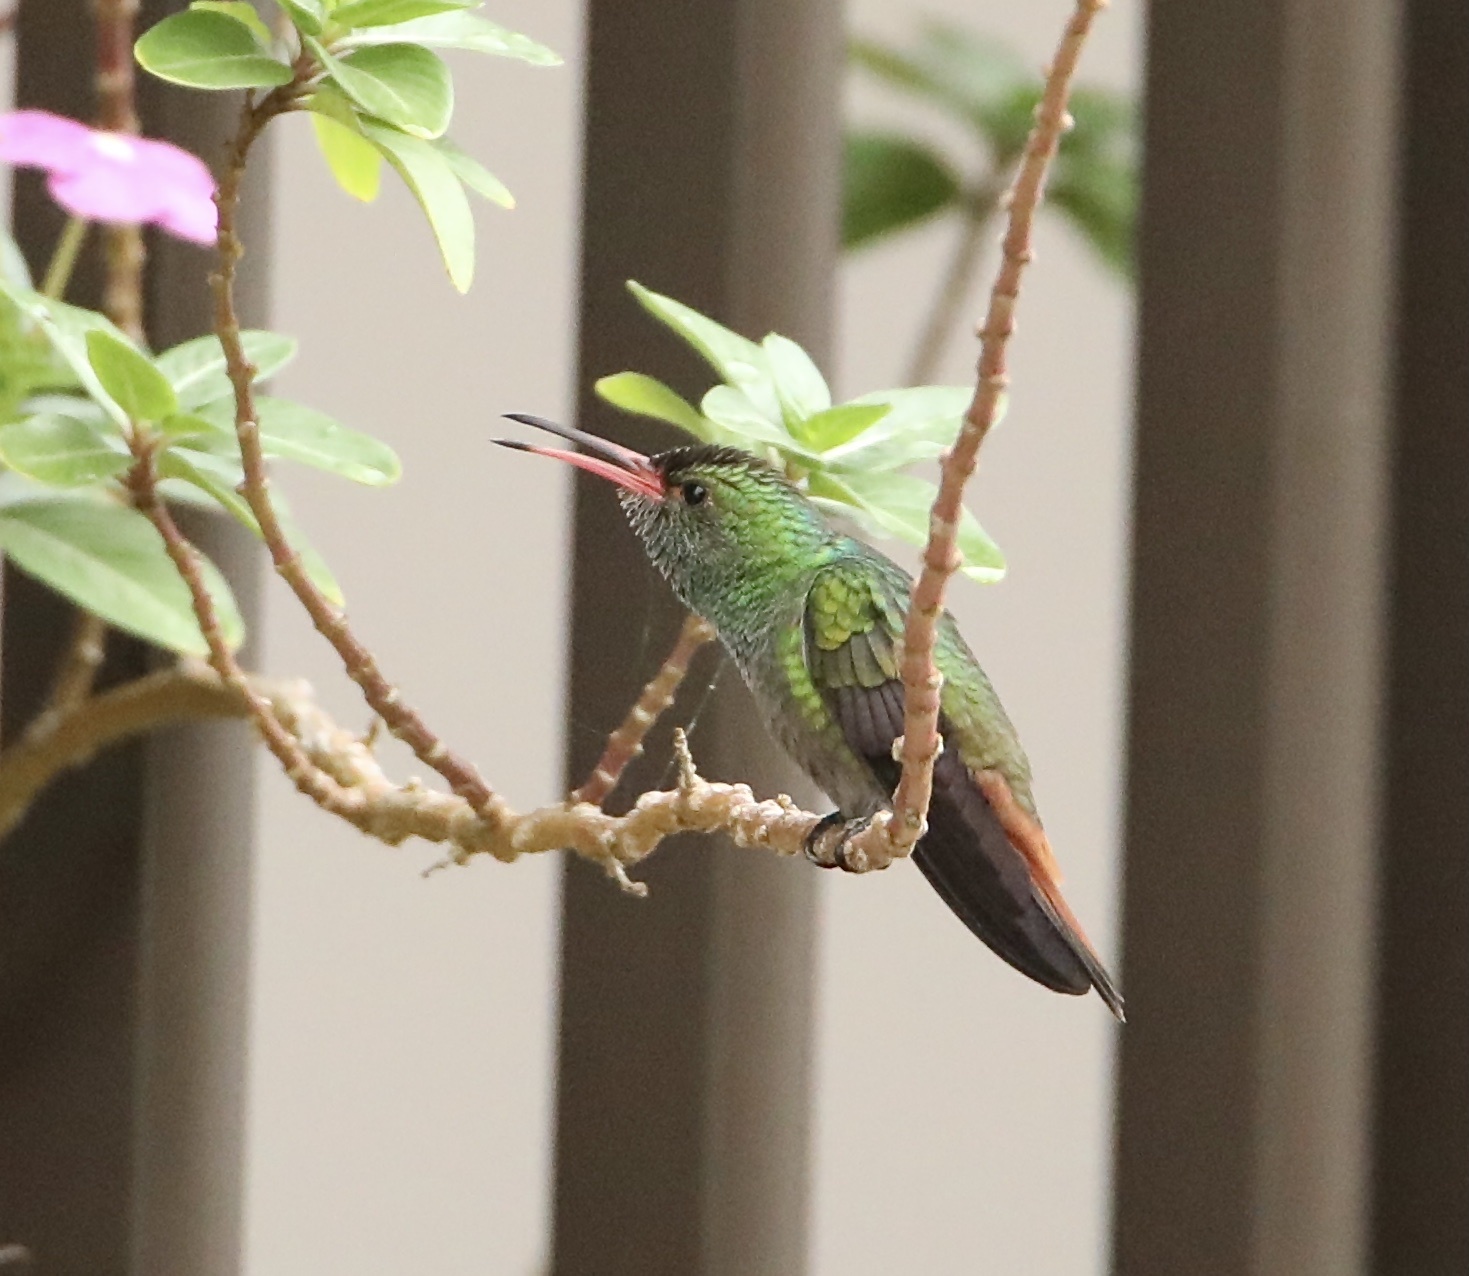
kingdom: Animalia
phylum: Chordata
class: Aves
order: Apodiformes
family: Trochilidae
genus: Amazilia
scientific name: Amazilia tzacatl
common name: Rufous-tailed hummingbird
